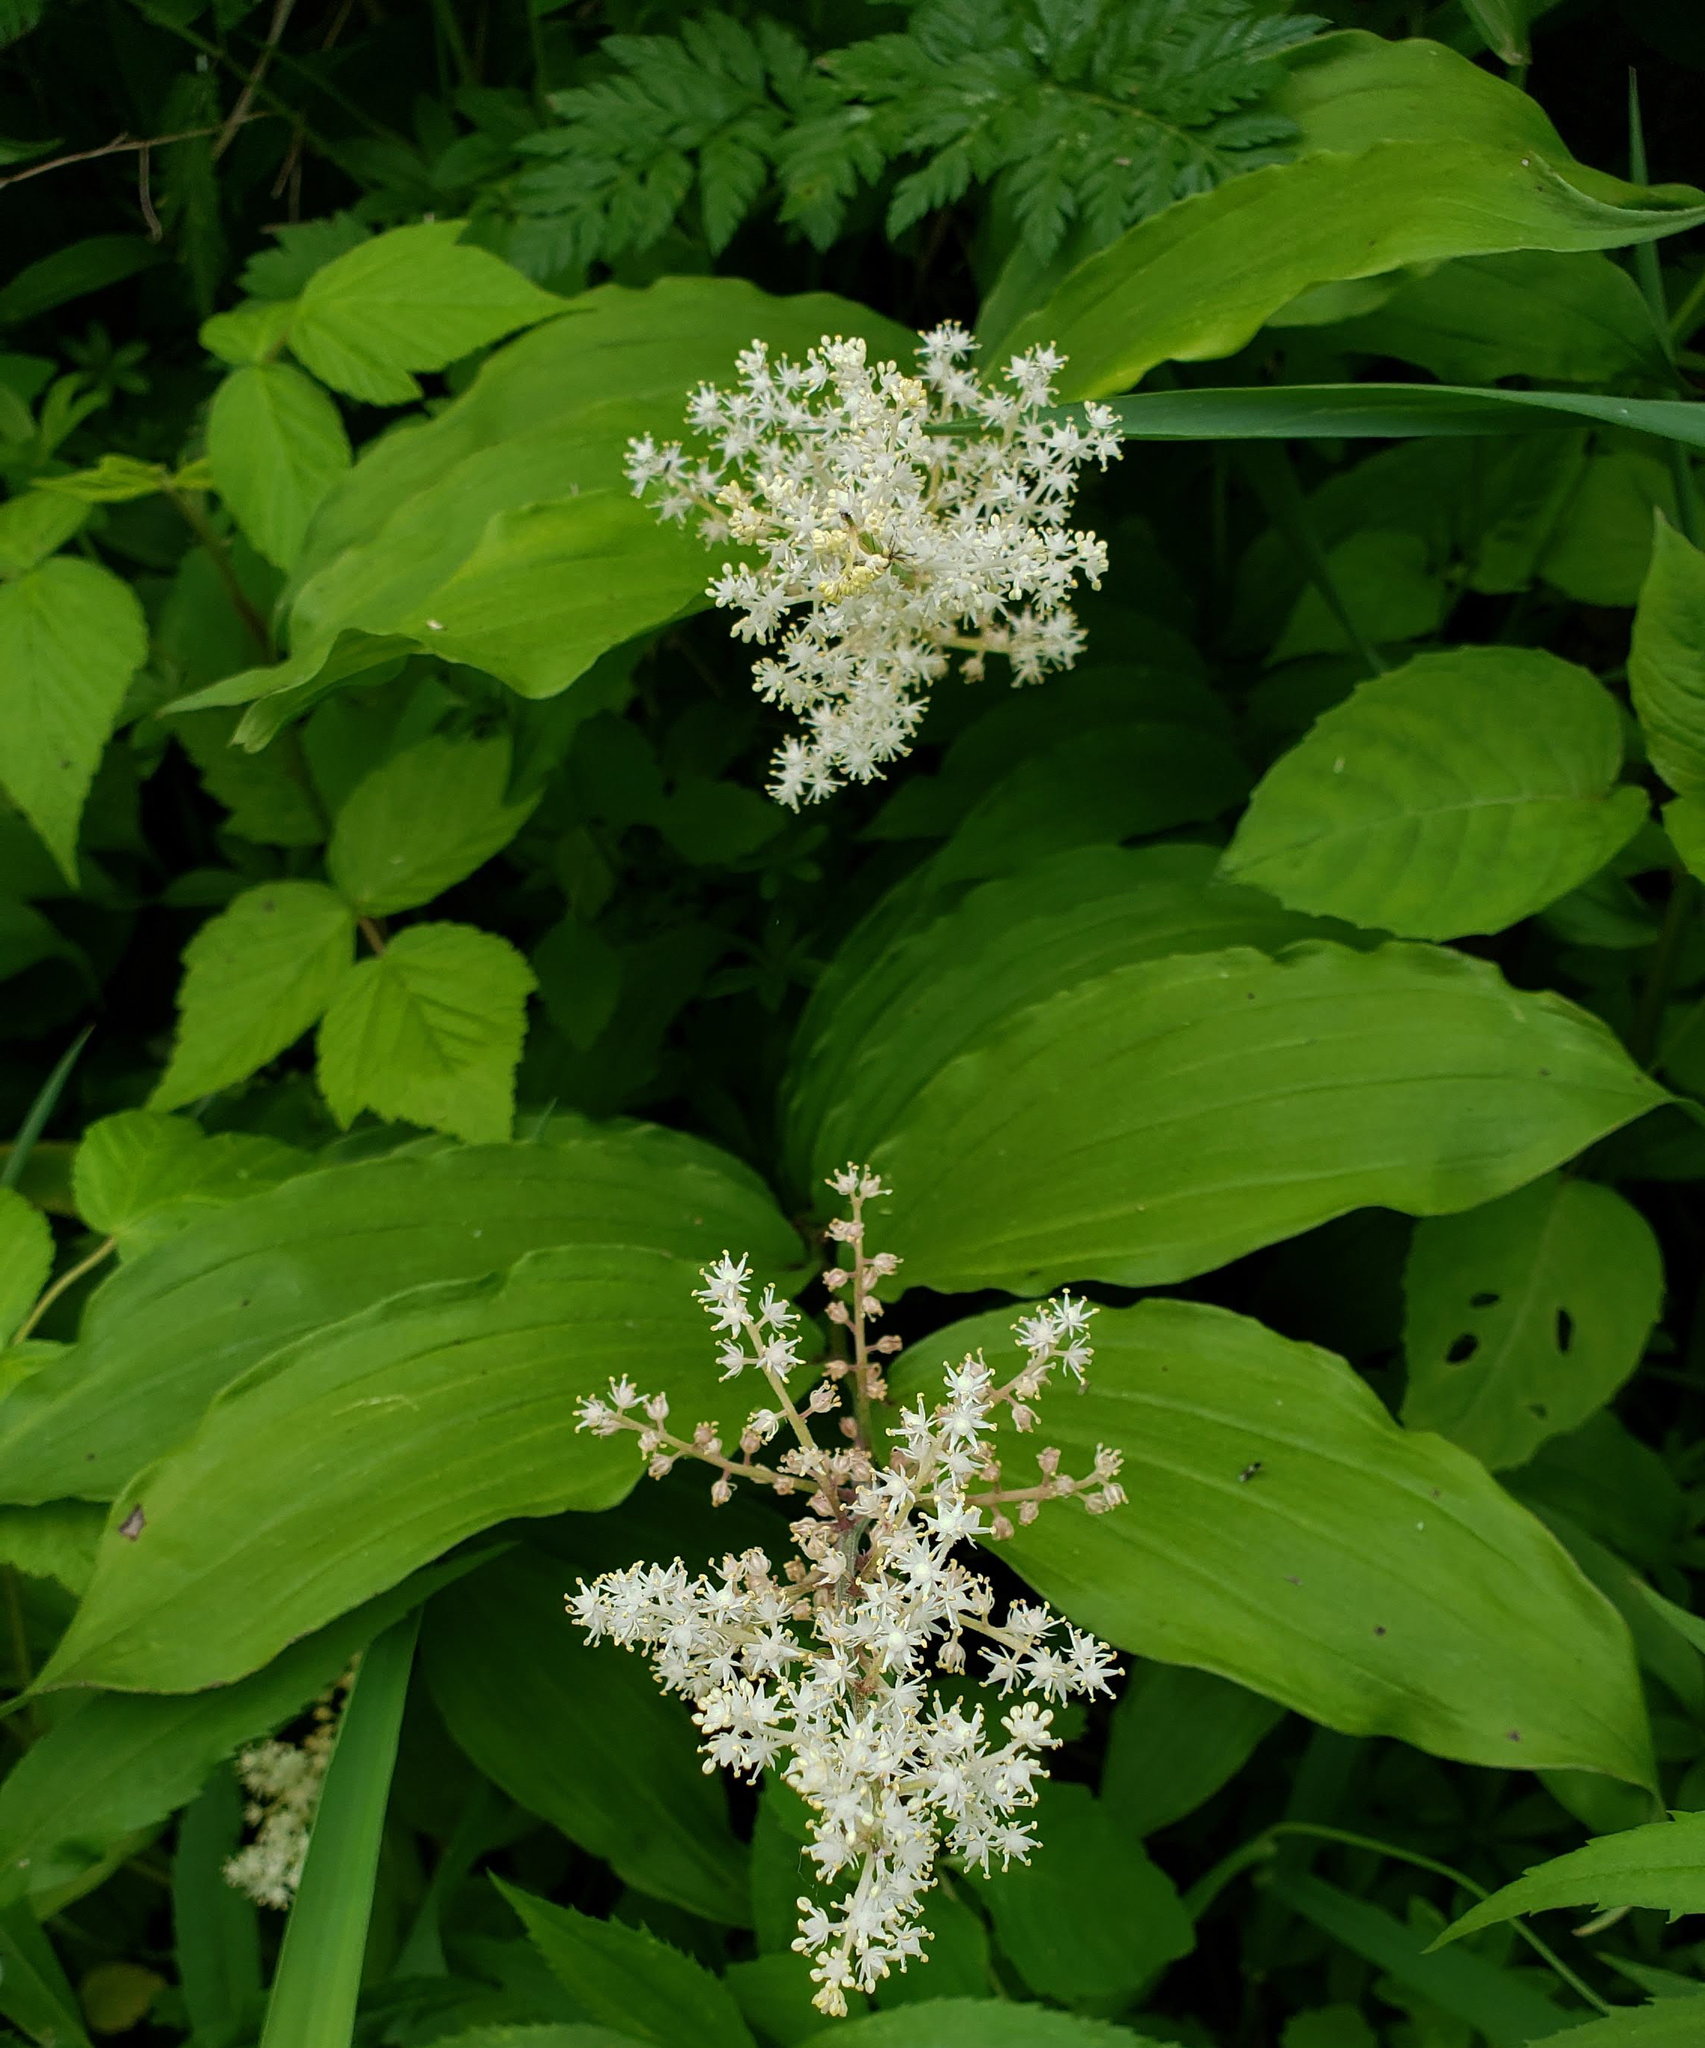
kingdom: Plantae
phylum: Tracheophyta
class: Liliopsida
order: Asparagales
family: Asparagaceae
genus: Maianthemum
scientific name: Maianthemum racemosum
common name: False spikenard
